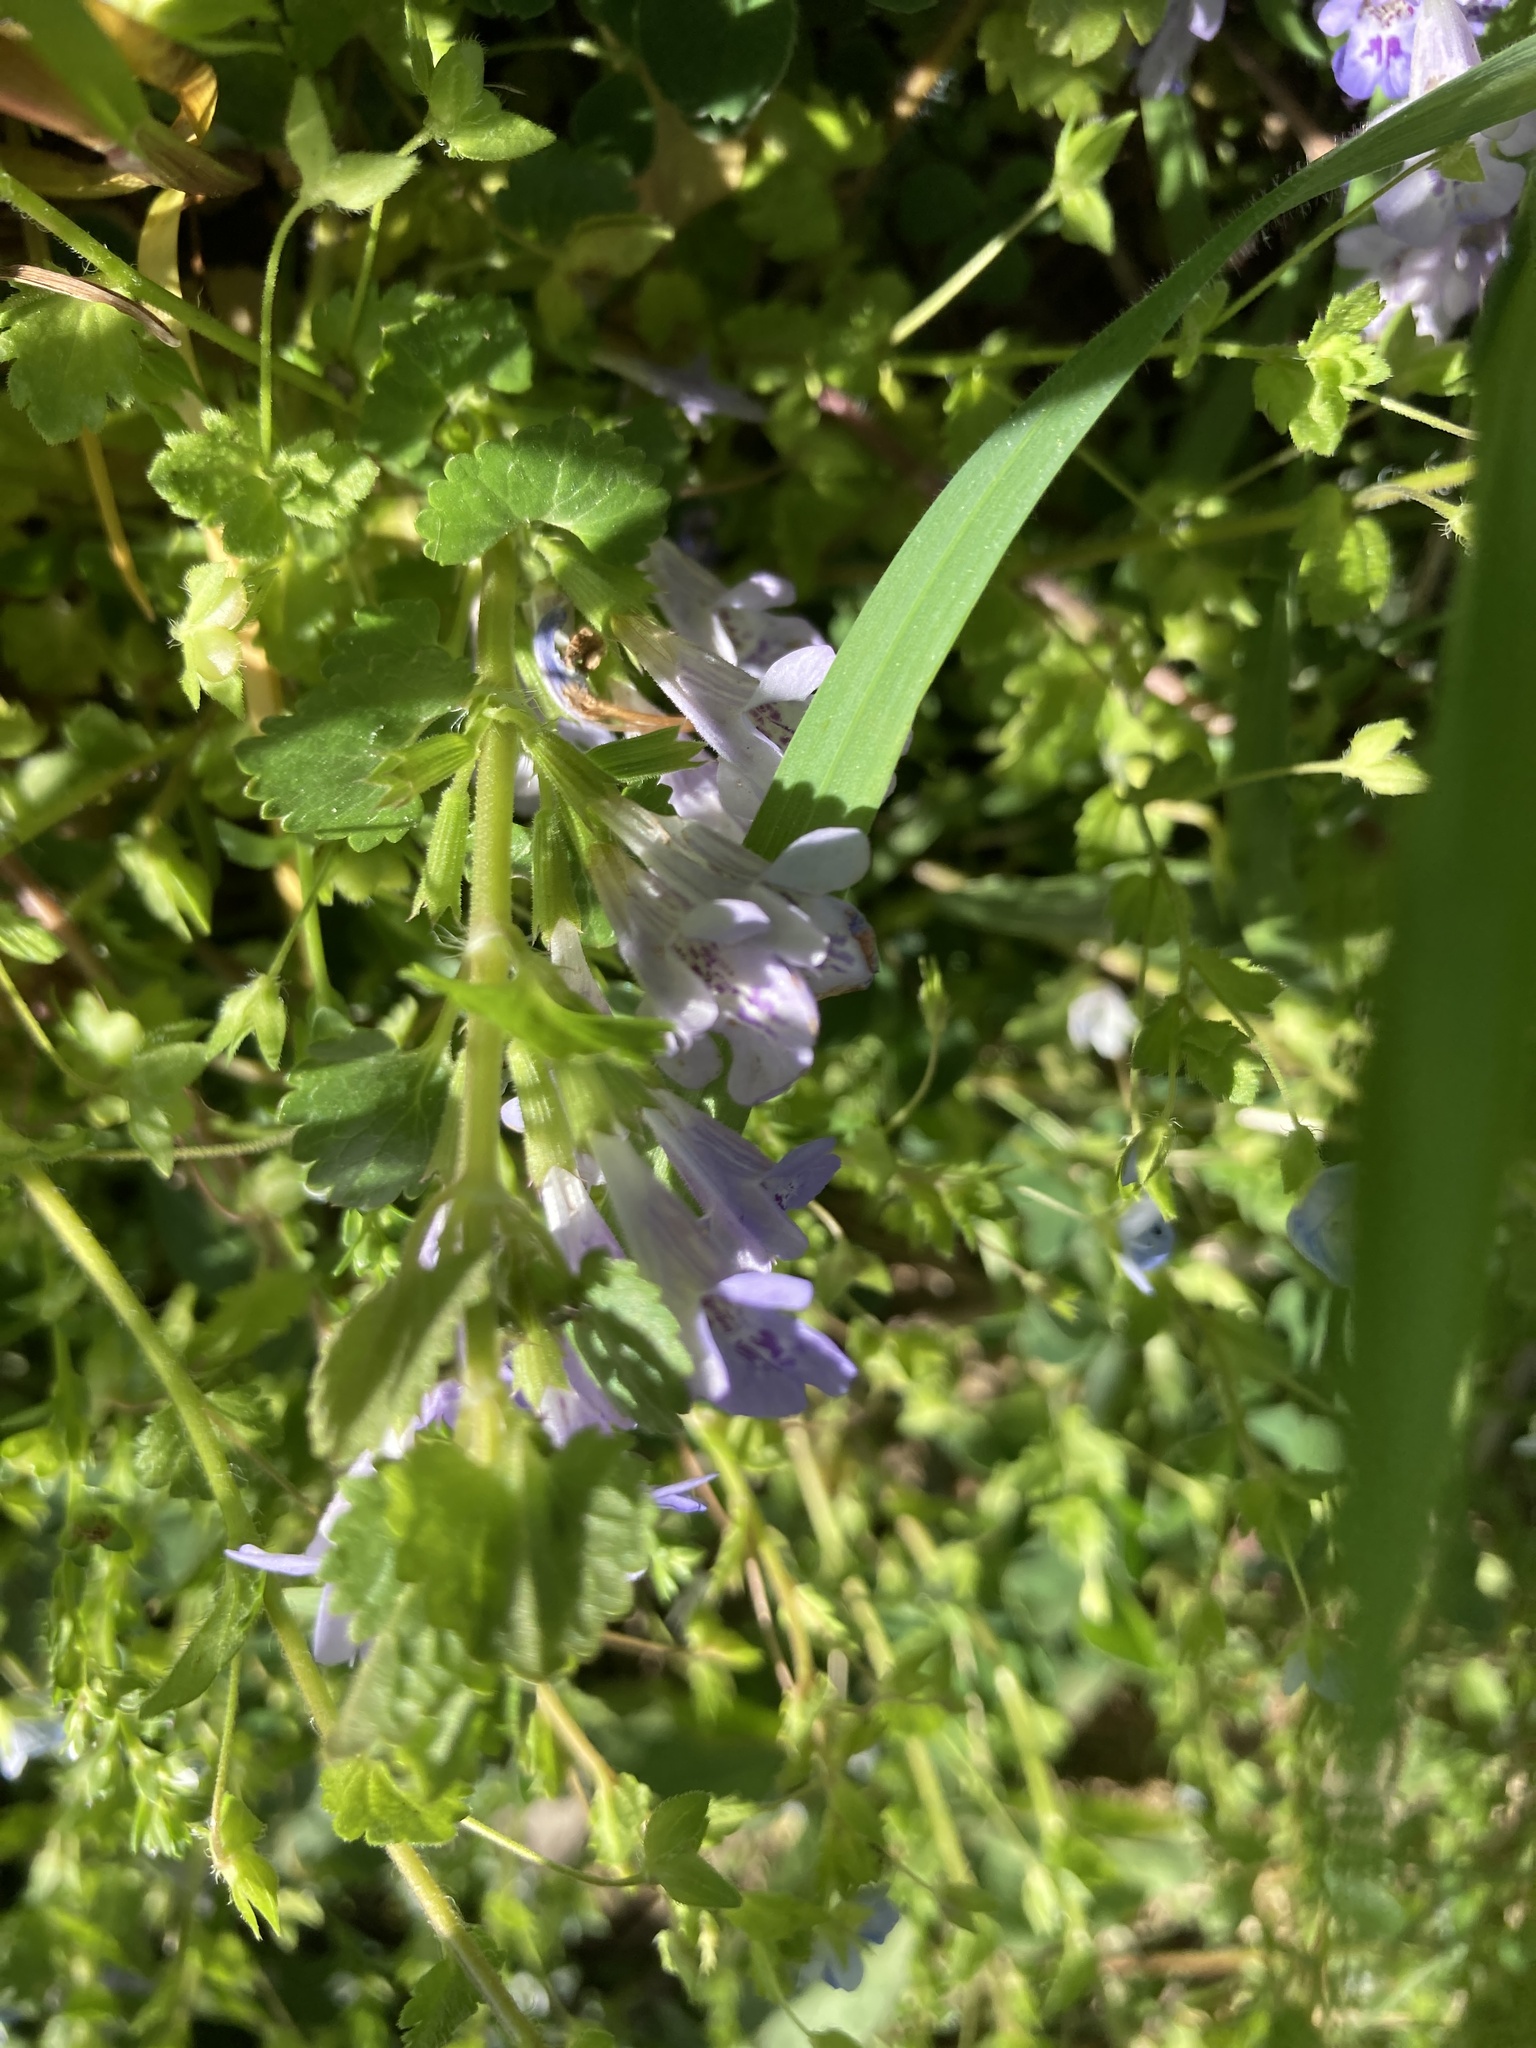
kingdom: Plantae
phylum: Tracheophyta
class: Magnoliopsida
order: Lamiales
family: Lamiaceae
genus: Glechoma
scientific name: Glechoma hederacea
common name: Ground ivy
